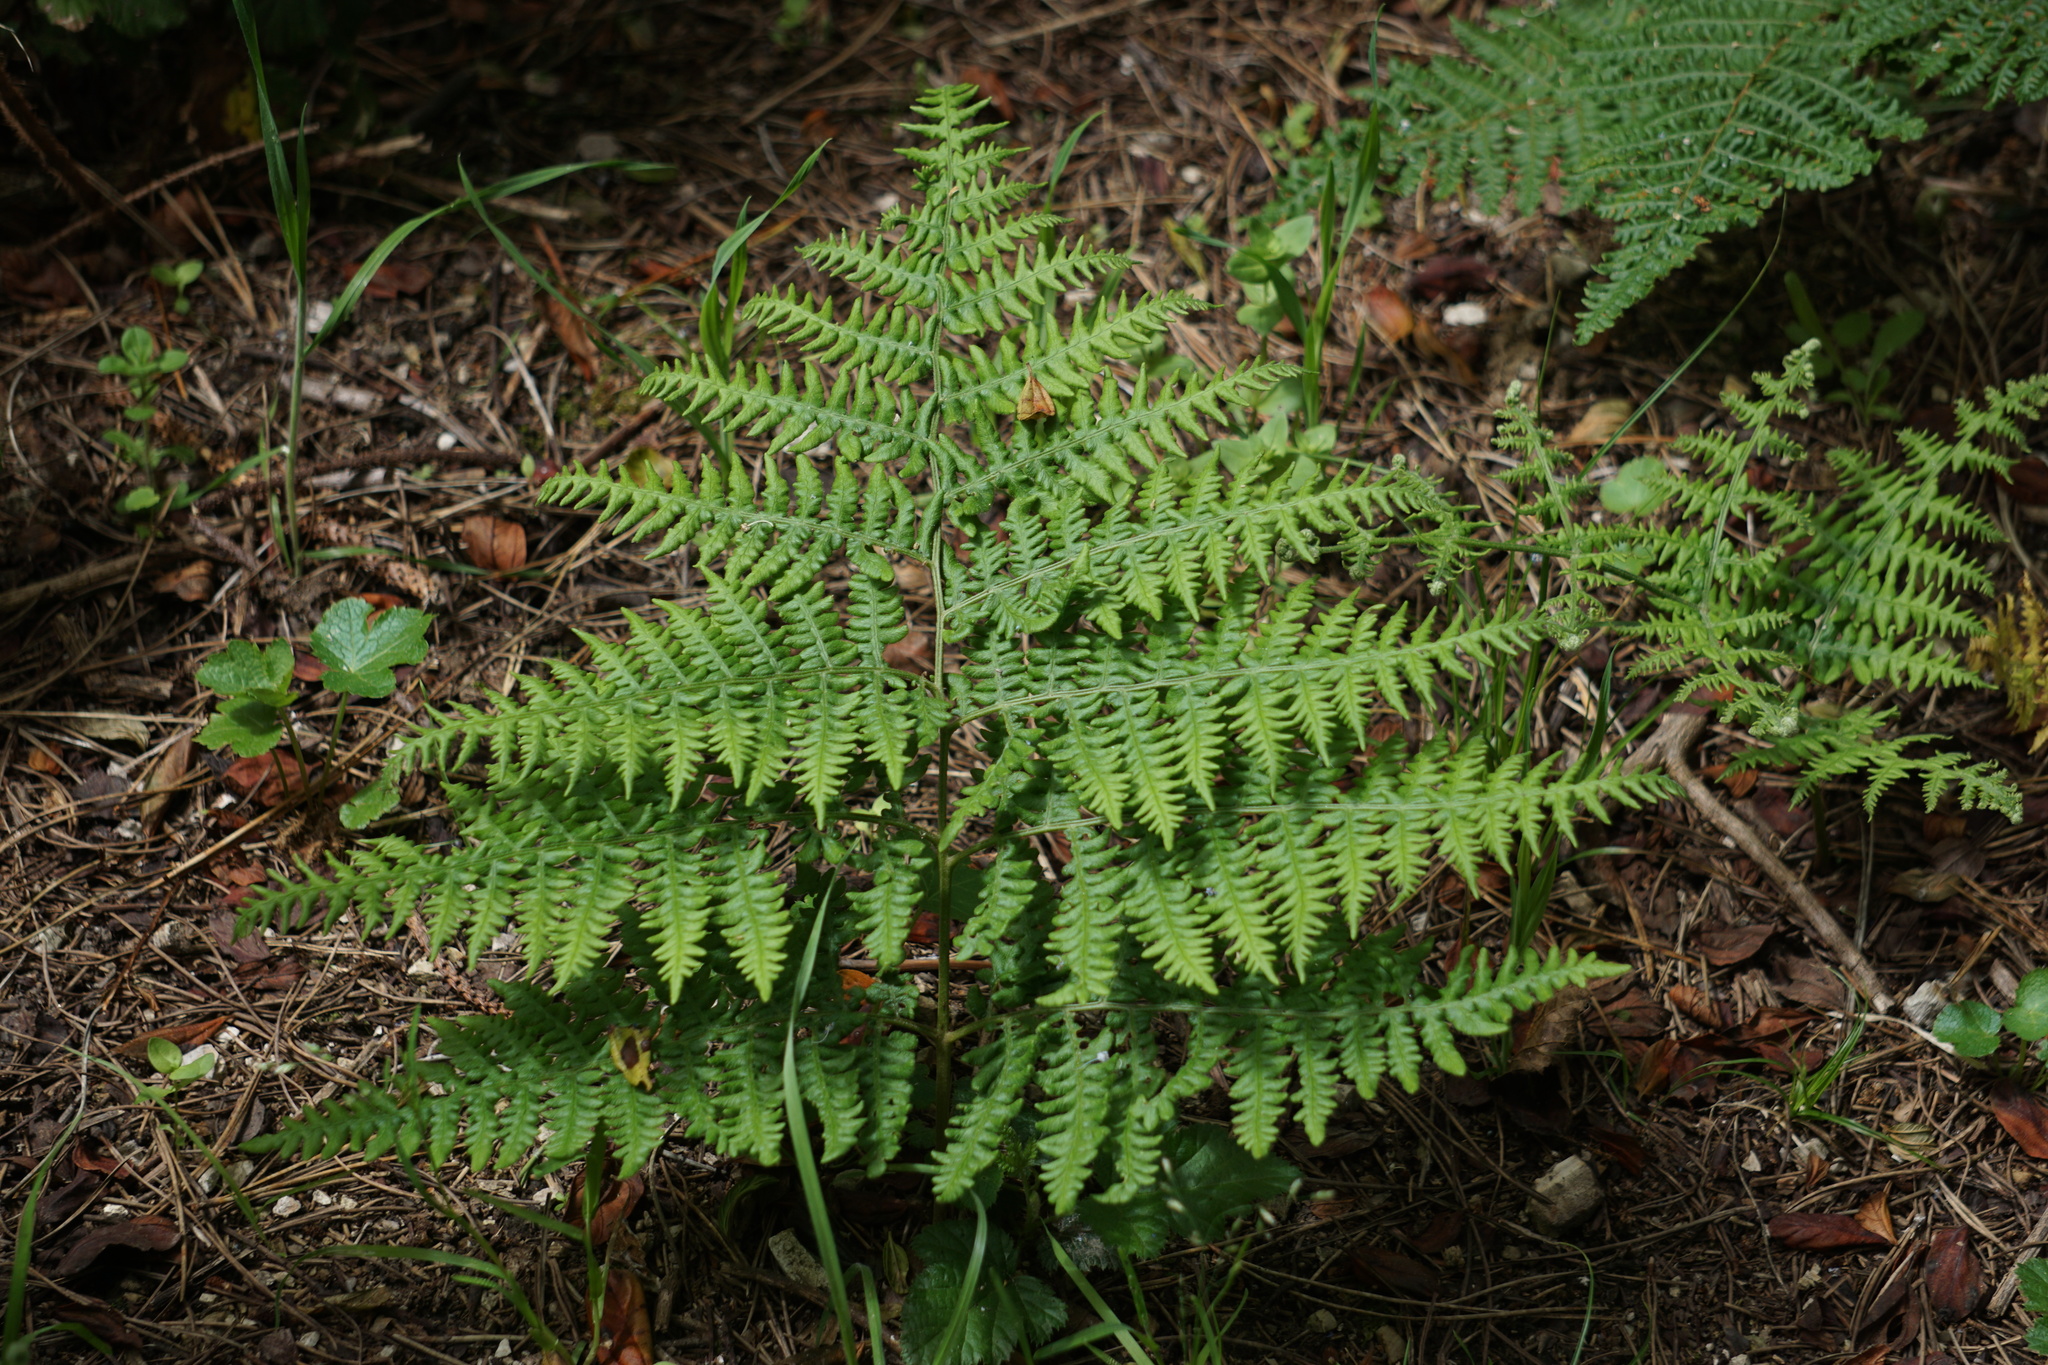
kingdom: Plantae
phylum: Tracheophyta
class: Polypodiopsida
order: Polypodiales
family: Dennstaedtiaceae
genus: Pteridium
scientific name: Pteridium aquilinum
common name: Bracken
